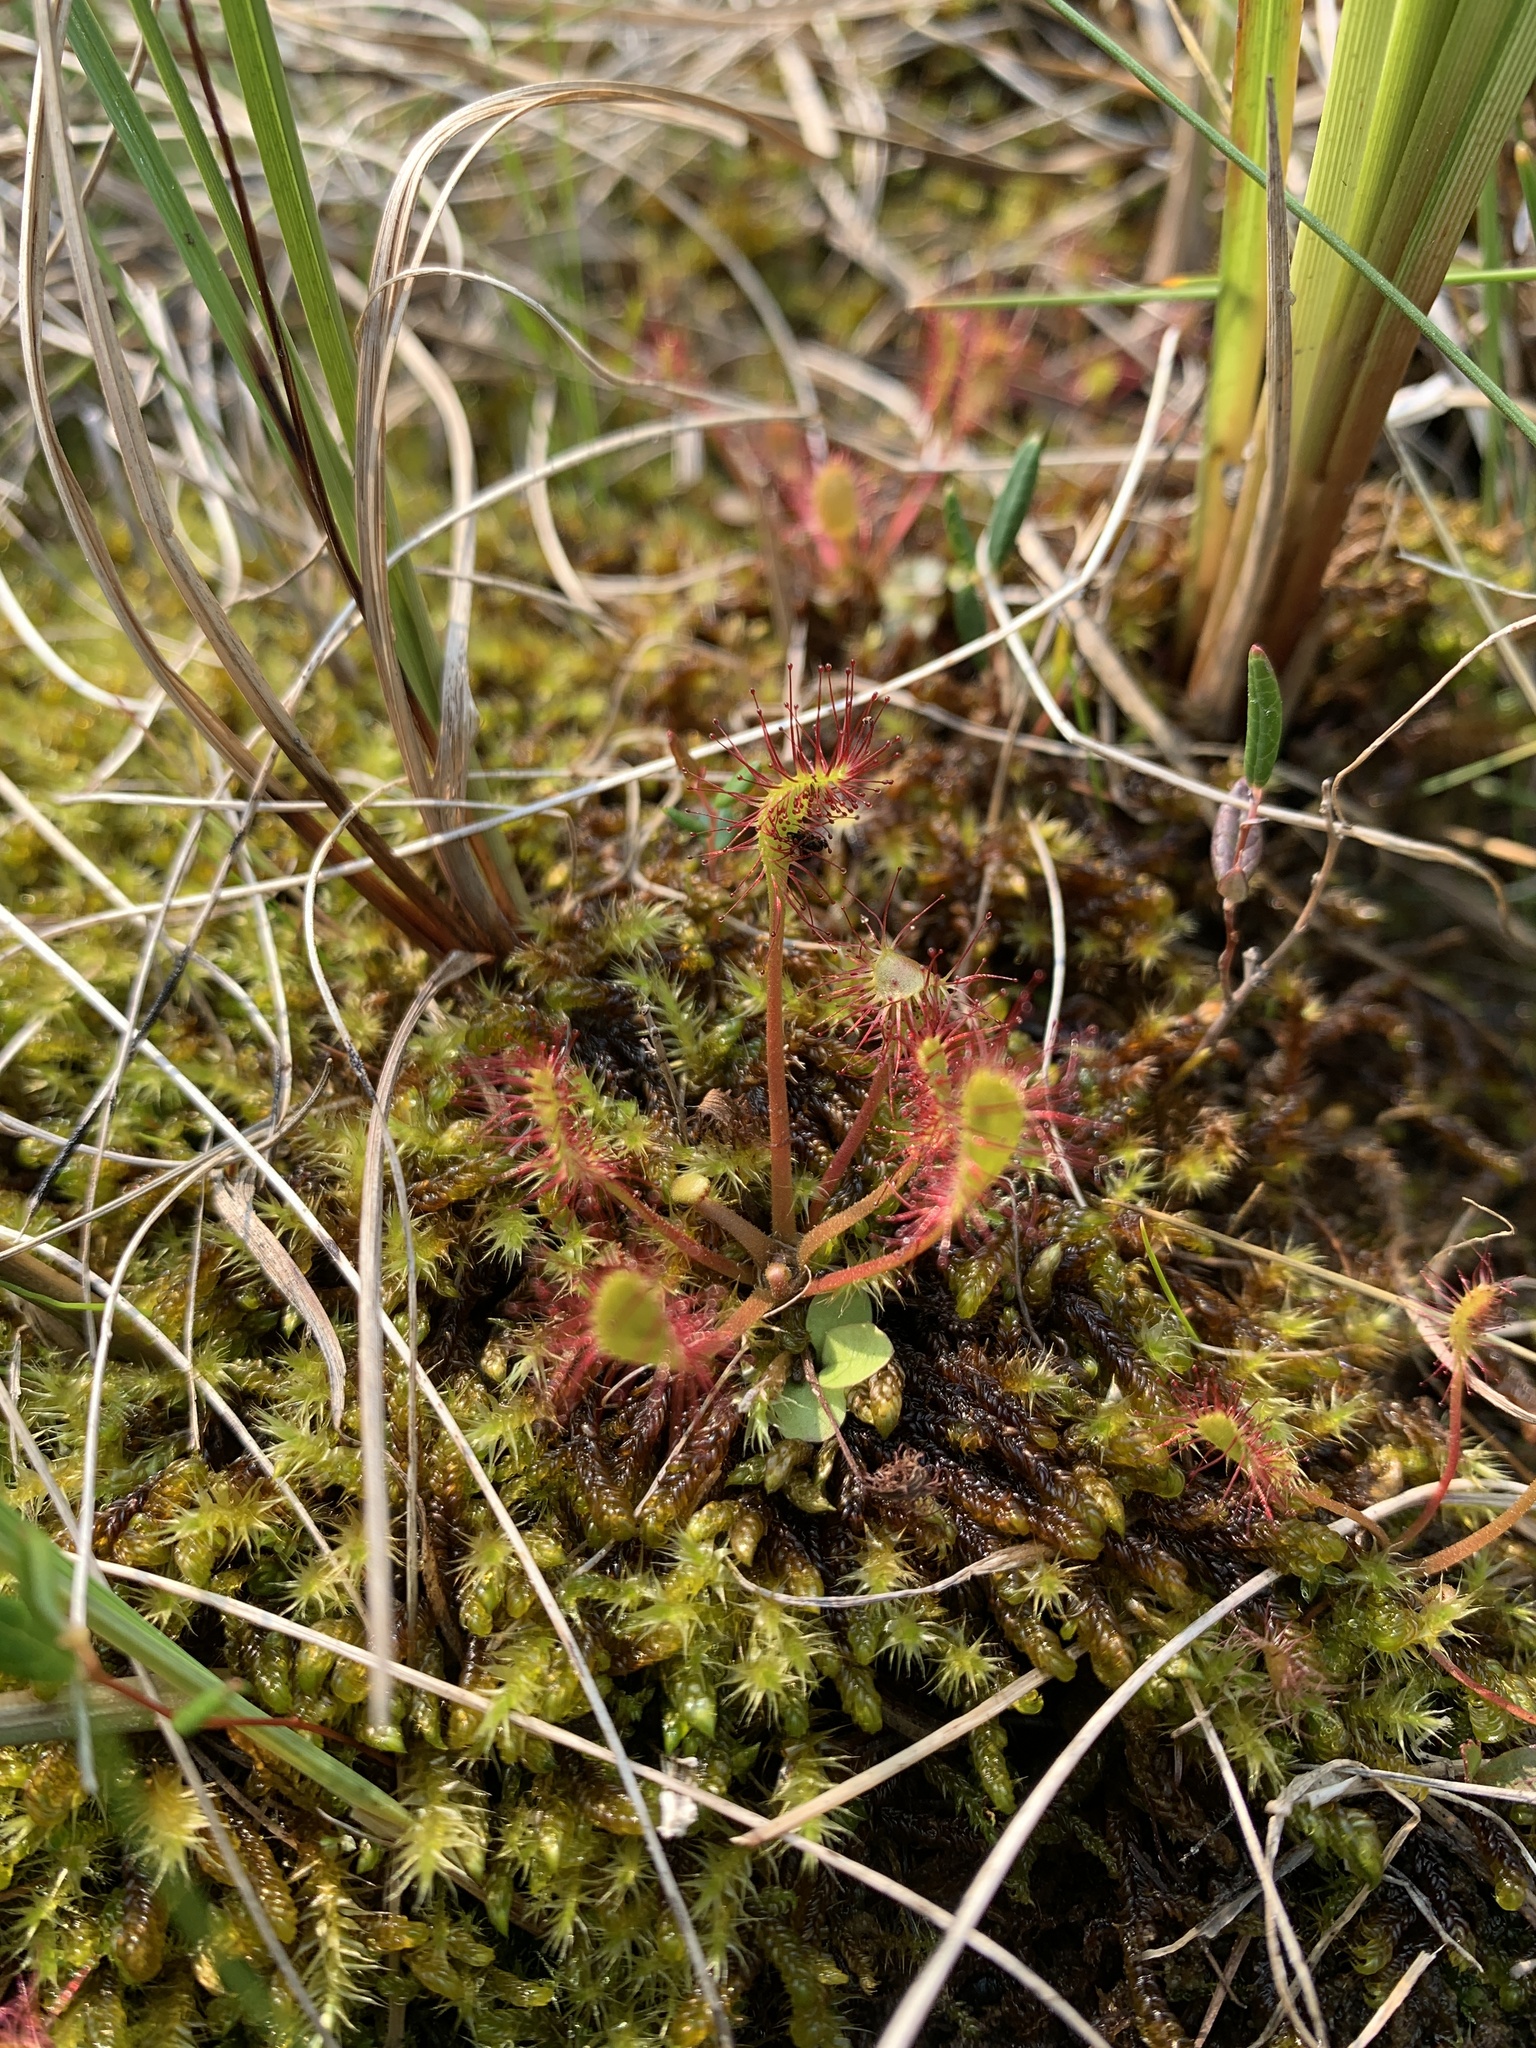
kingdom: Plantae
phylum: Tracheophyta
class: Magnoliopsida
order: Caryophyllales
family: Droseraceae
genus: Drosera
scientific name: Drosera rotundifolia
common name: Round-leaved sundew
